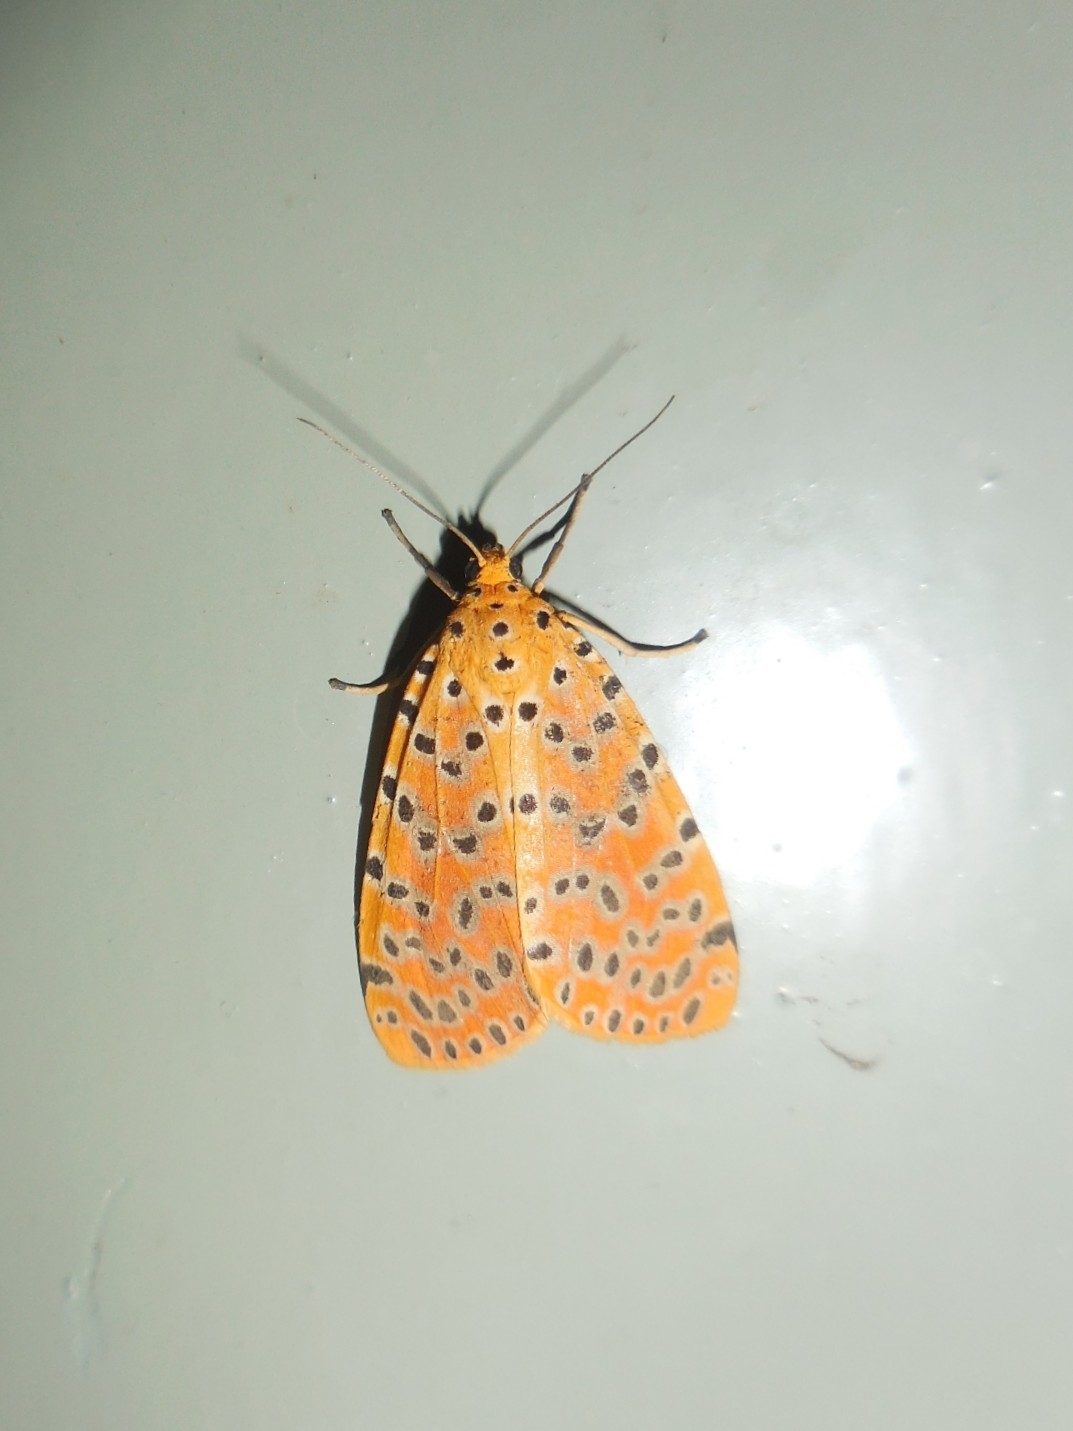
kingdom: Animalia
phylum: Arthropoda
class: Insecta
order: Lepidoptera
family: Erebidae
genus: Argina
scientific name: Argina astrea
